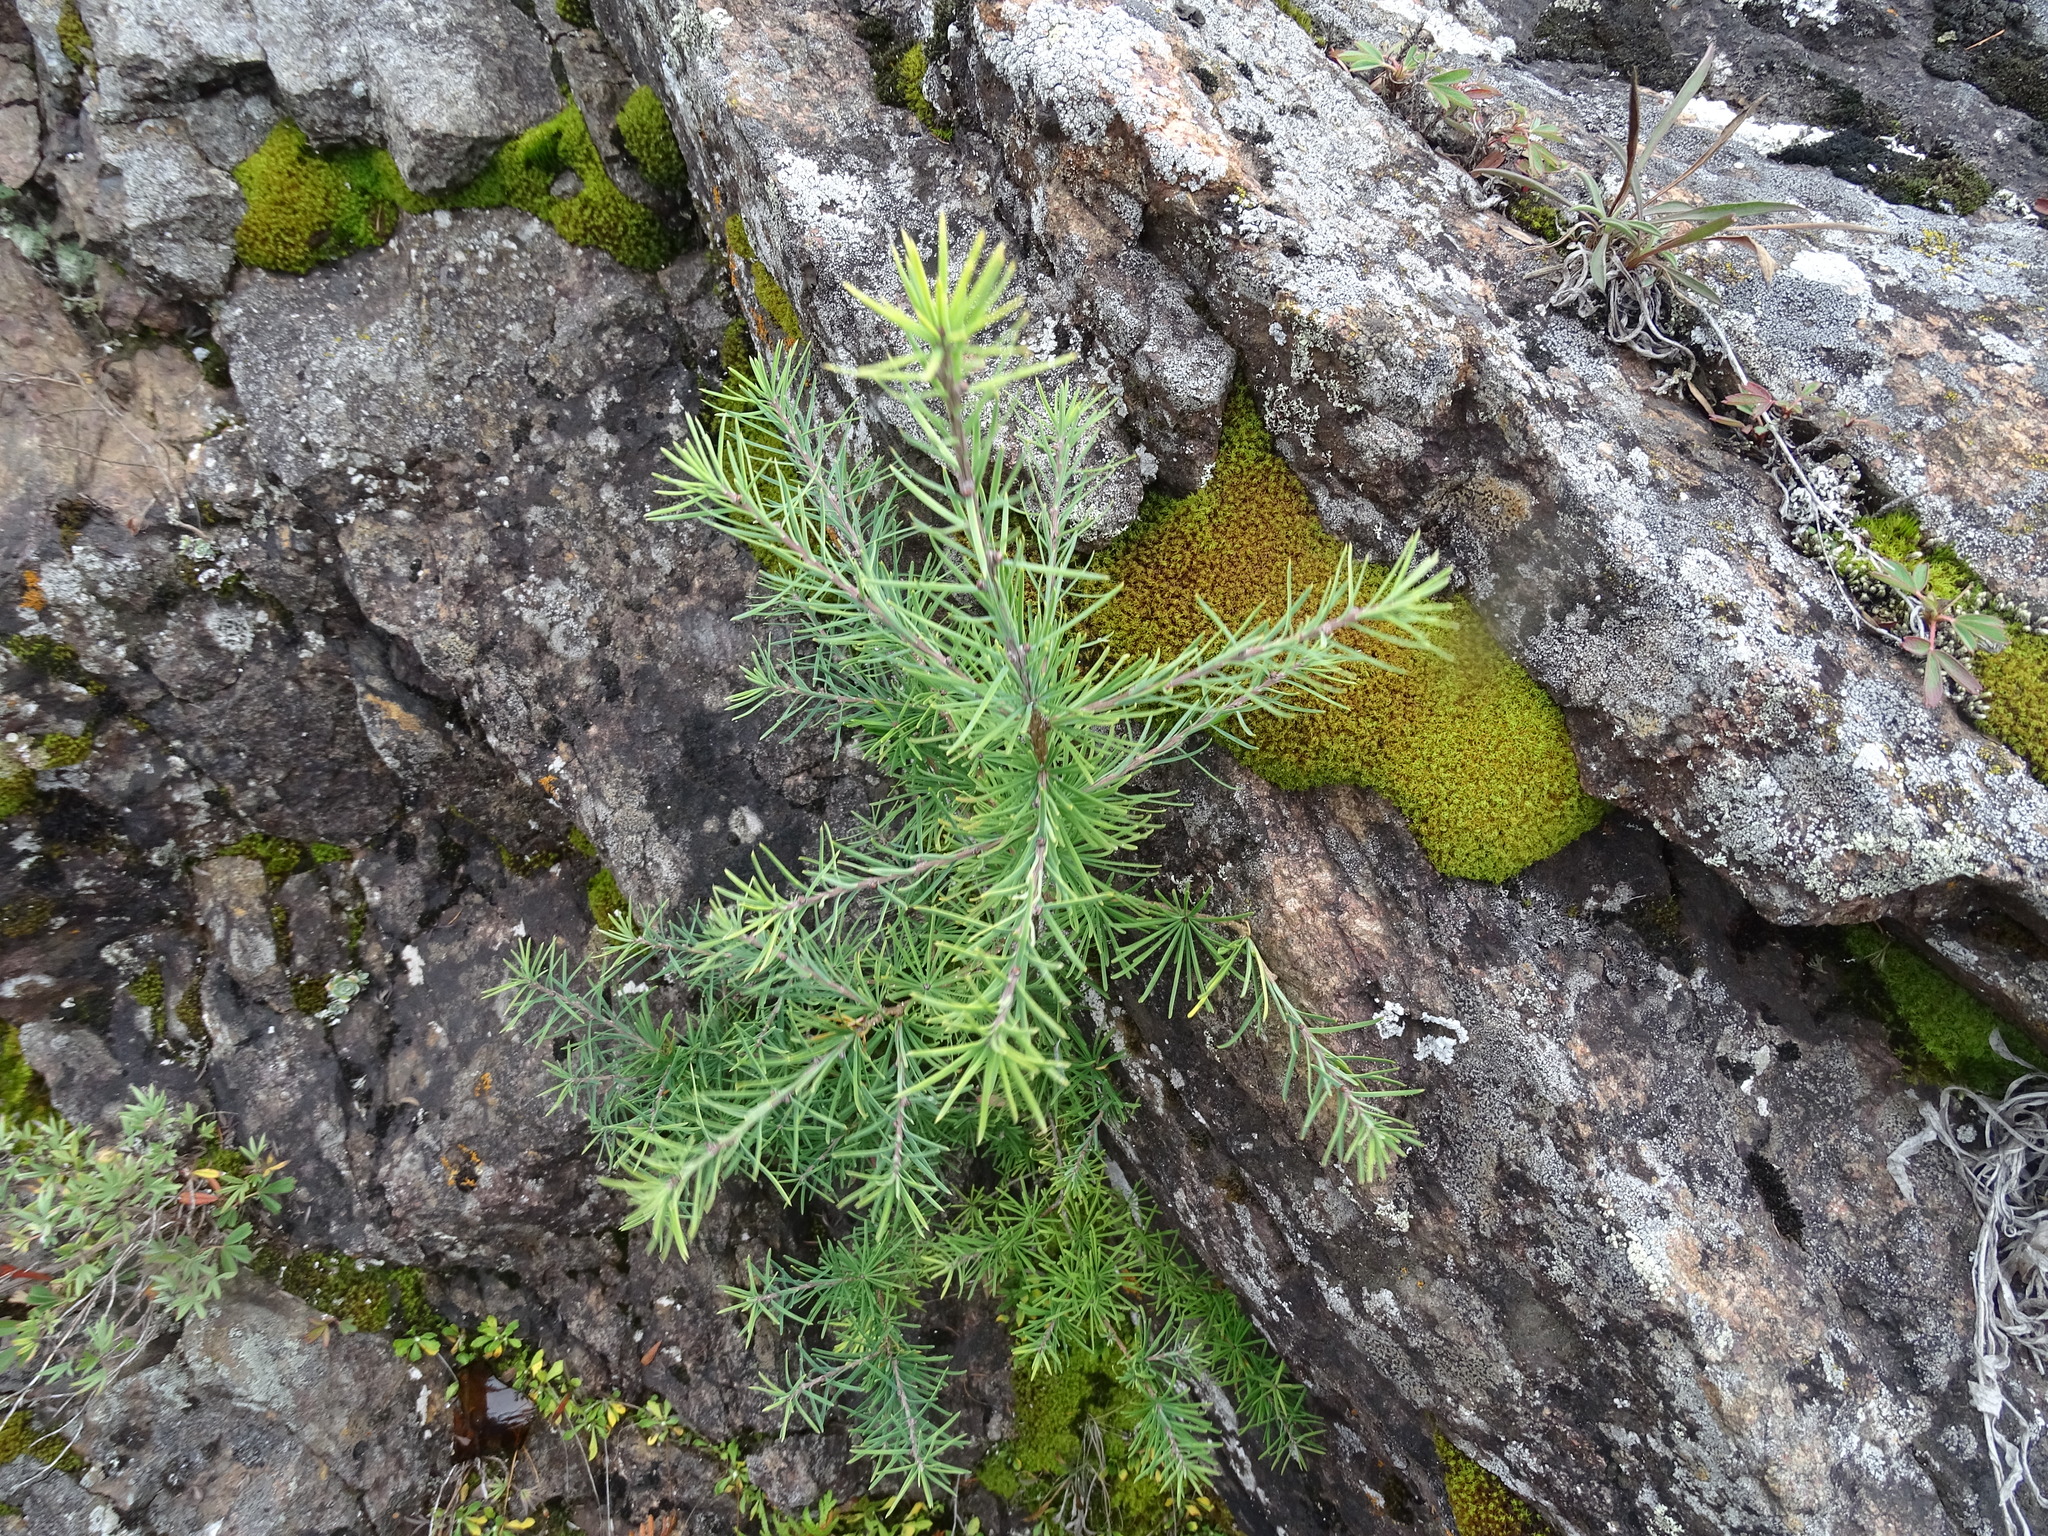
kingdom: Plantae
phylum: Tracheophyta
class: Pinopsida
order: Pinales
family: Pinaceae
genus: Larix
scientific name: Larix laricina
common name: American larch
